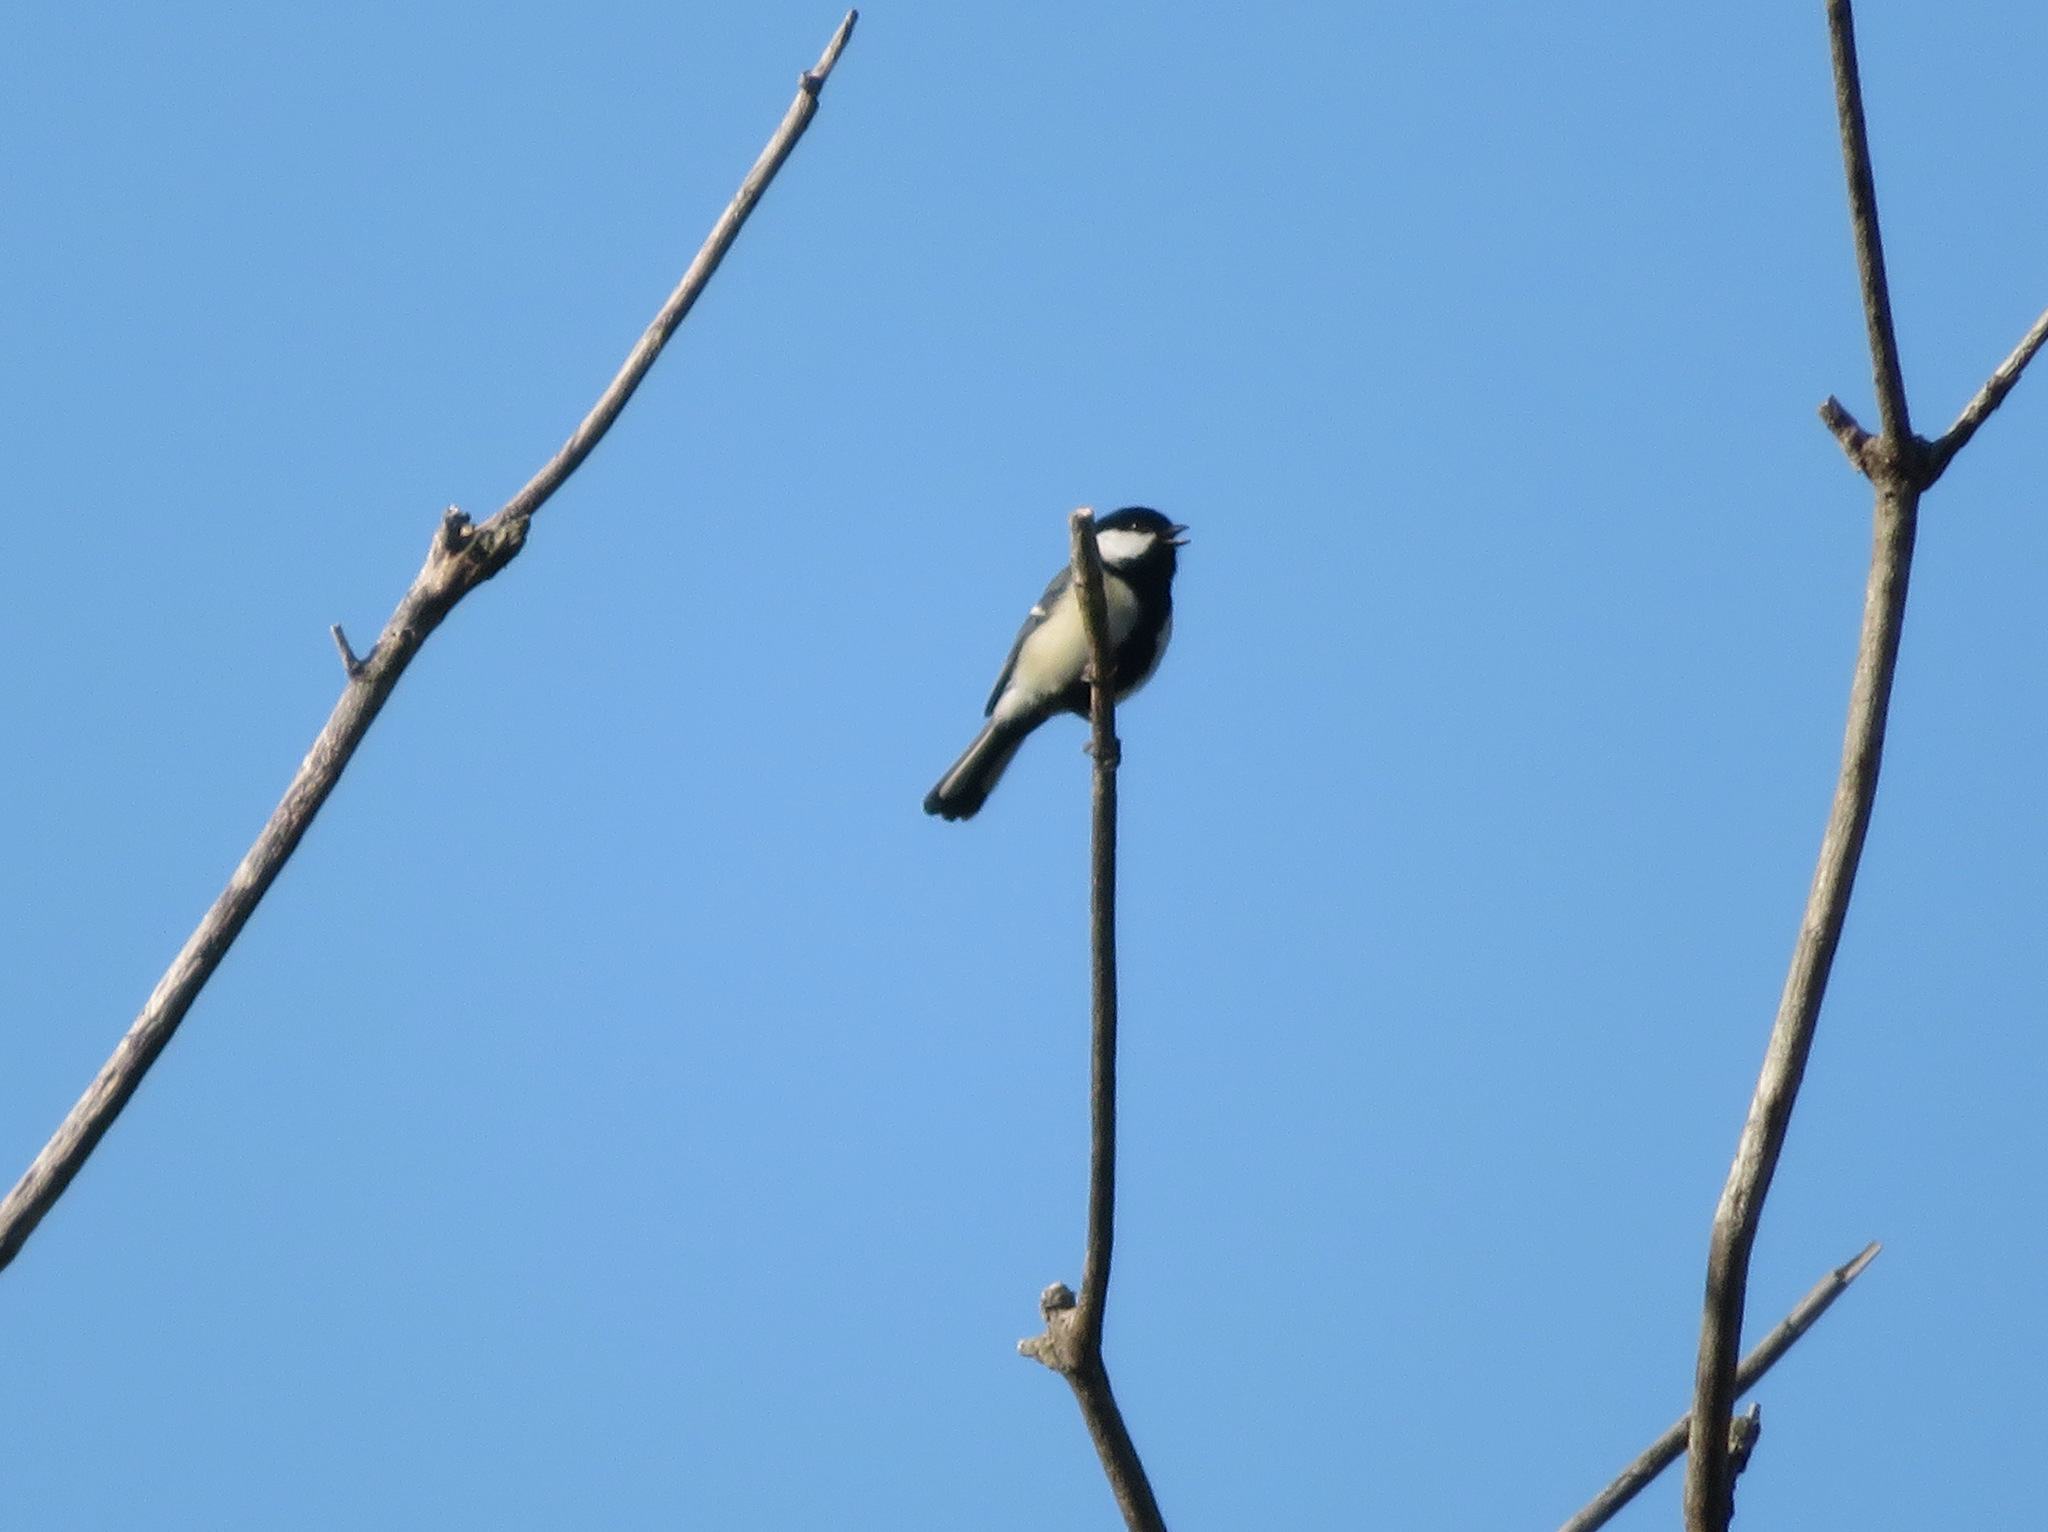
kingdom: Animalia
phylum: Chordata
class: Aves
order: Passeriformes
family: Paridae
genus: Parus
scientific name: Parus minor
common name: Japanese tit
